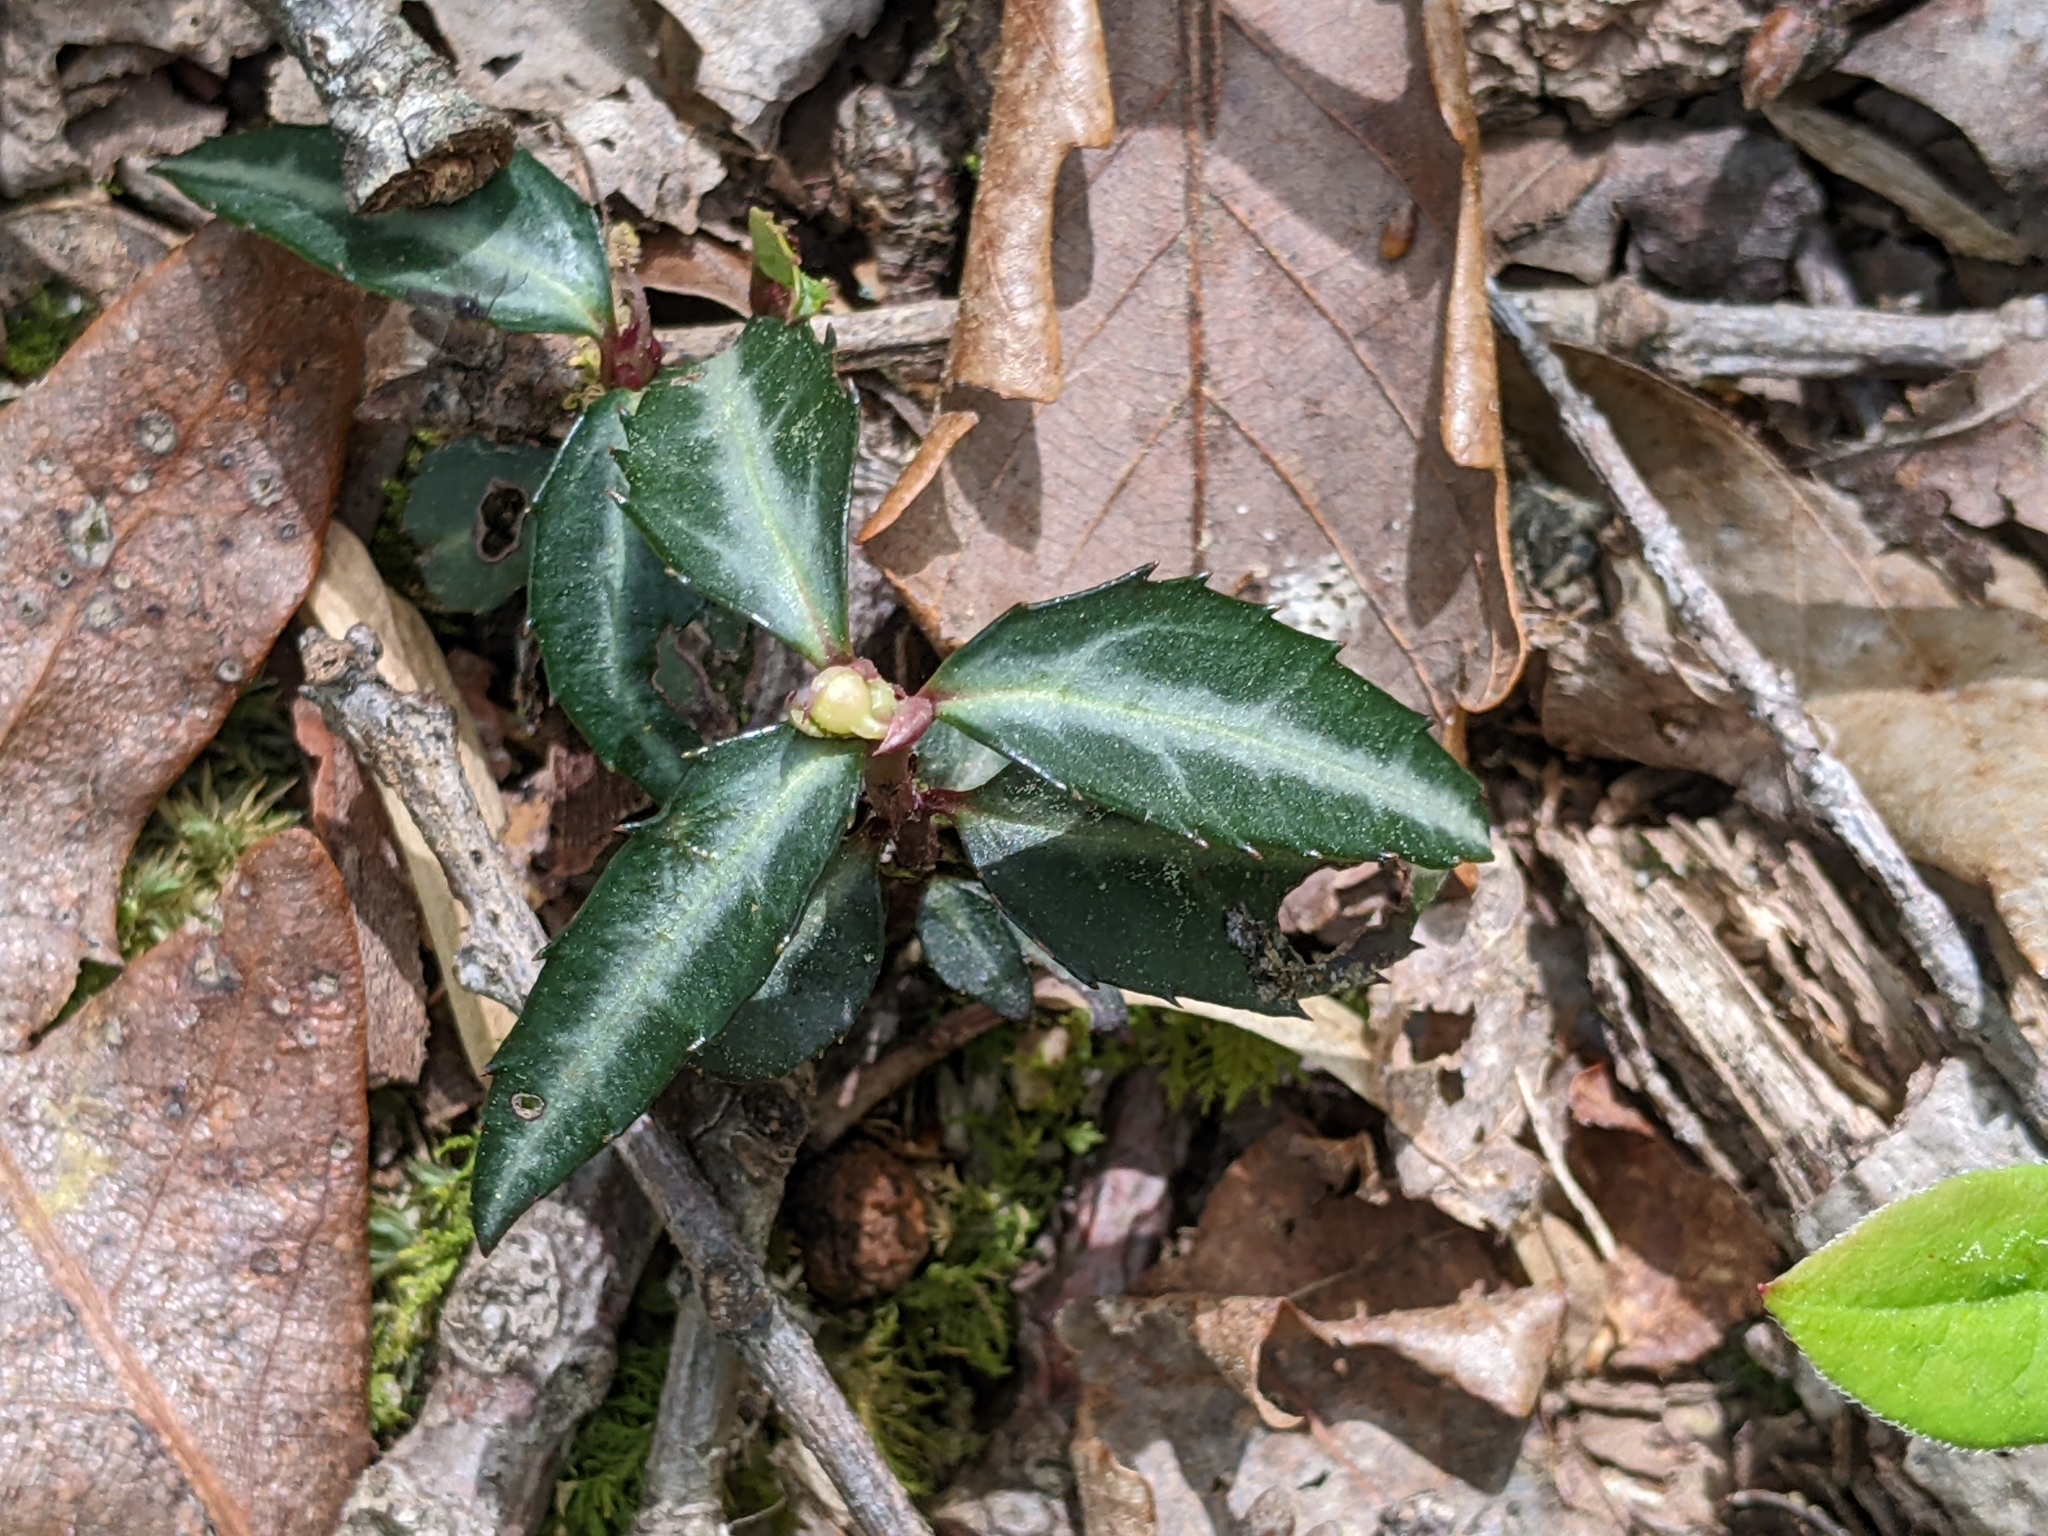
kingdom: Plantae
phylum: Tracheophyta
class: Magnoliopsida
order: Ericales
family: Ericaceae
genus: Chimaphila
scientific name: Chimaphila maculata
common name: Spotted pipsissewa
